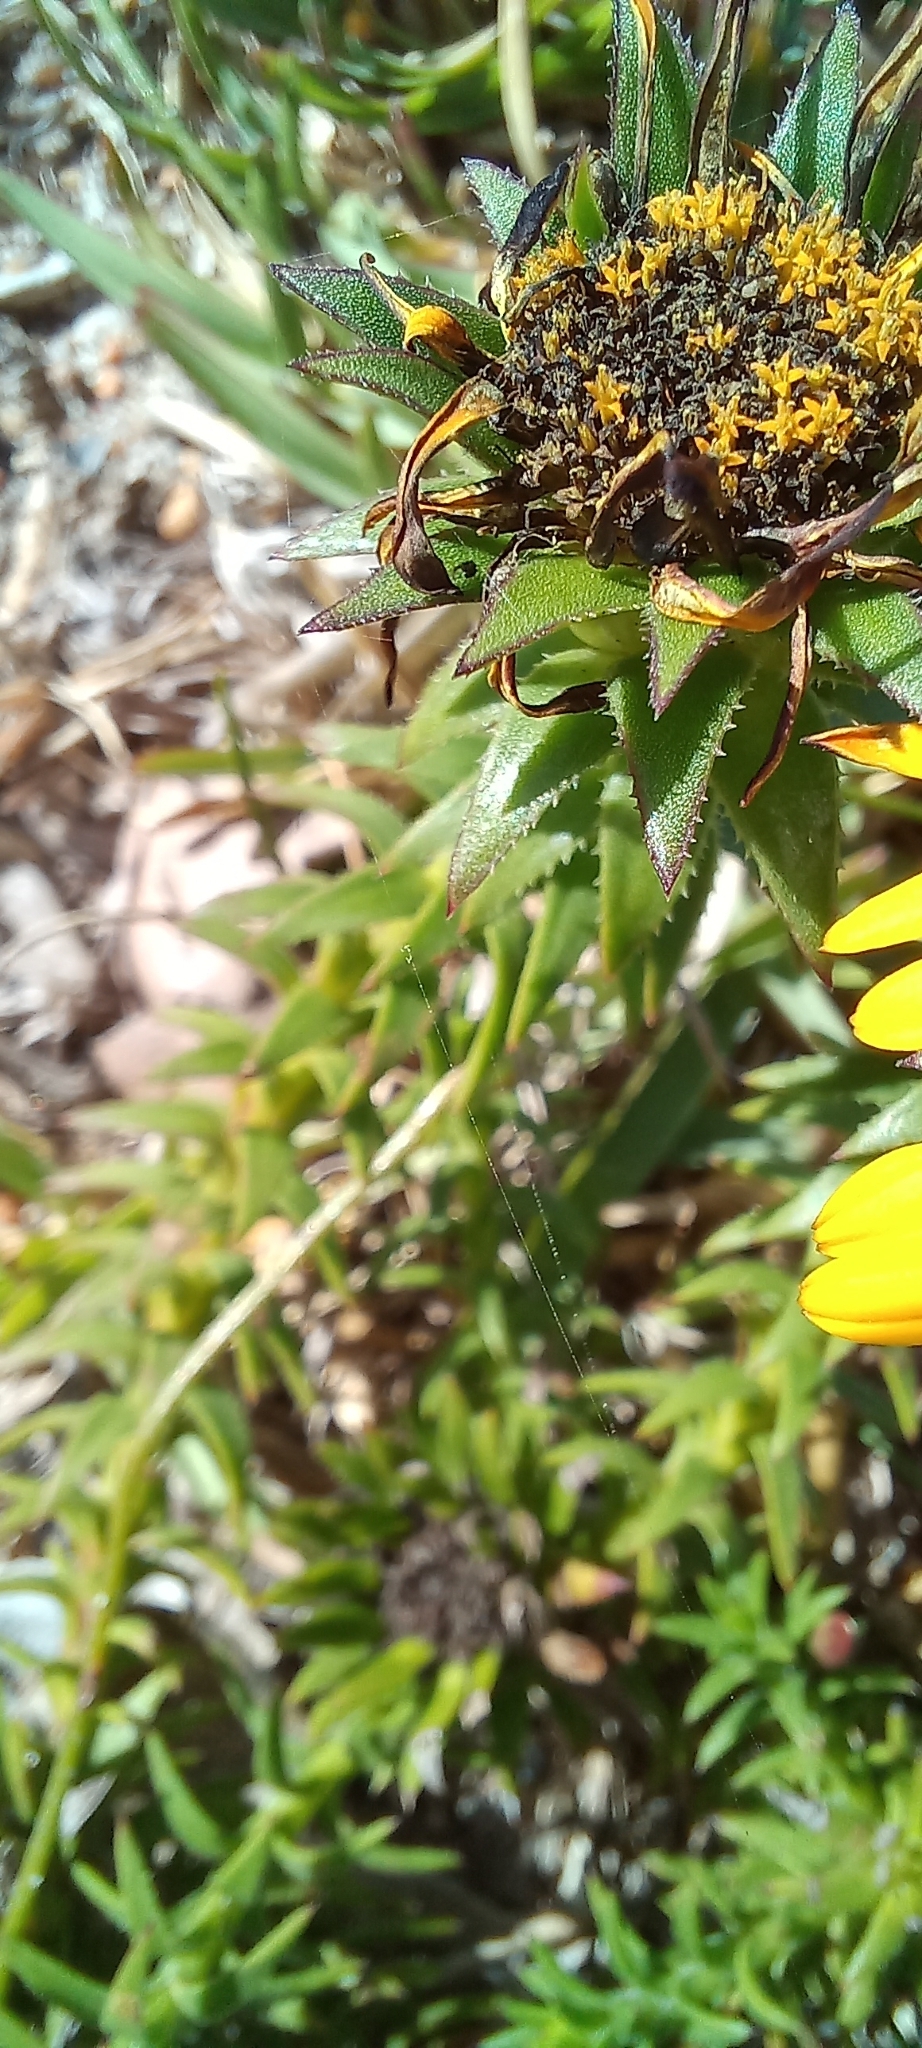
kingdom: Plantae
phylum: Tracheophyta
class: Magnoliopsida
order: Asterales
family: Asteraceae
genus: Heterolepis
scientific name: Heterolepis aliena
